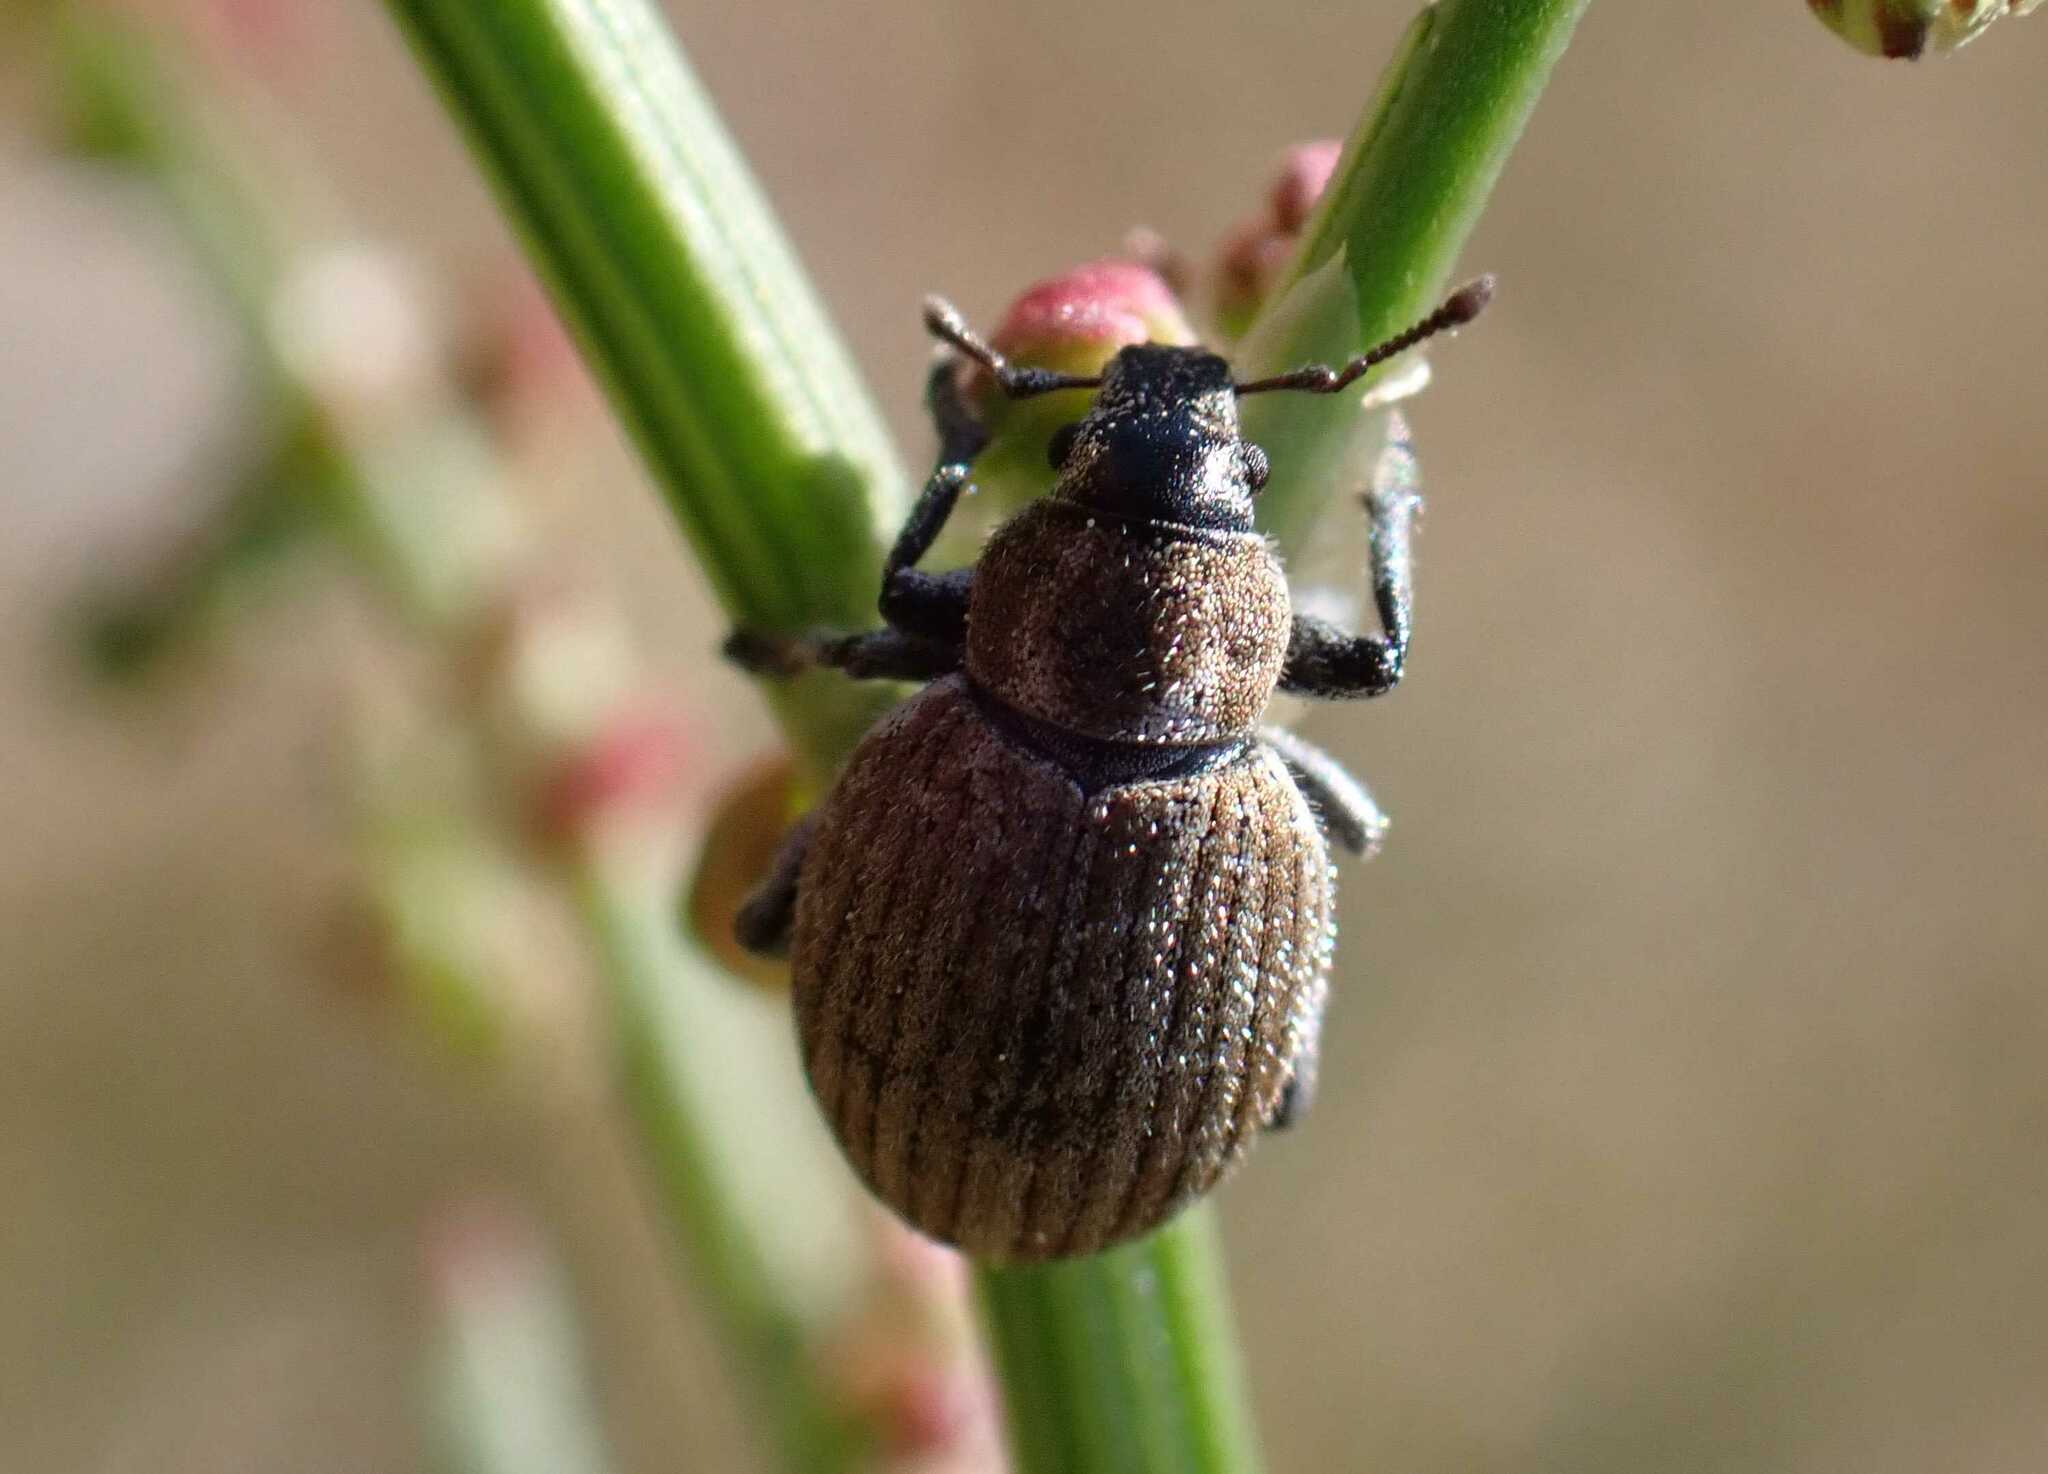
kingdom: Animalia
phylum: Arthropoda
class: Insecta
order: Coleoptera
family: Curculionidae
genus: Philopedon
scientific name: Philopedon plagiatum
